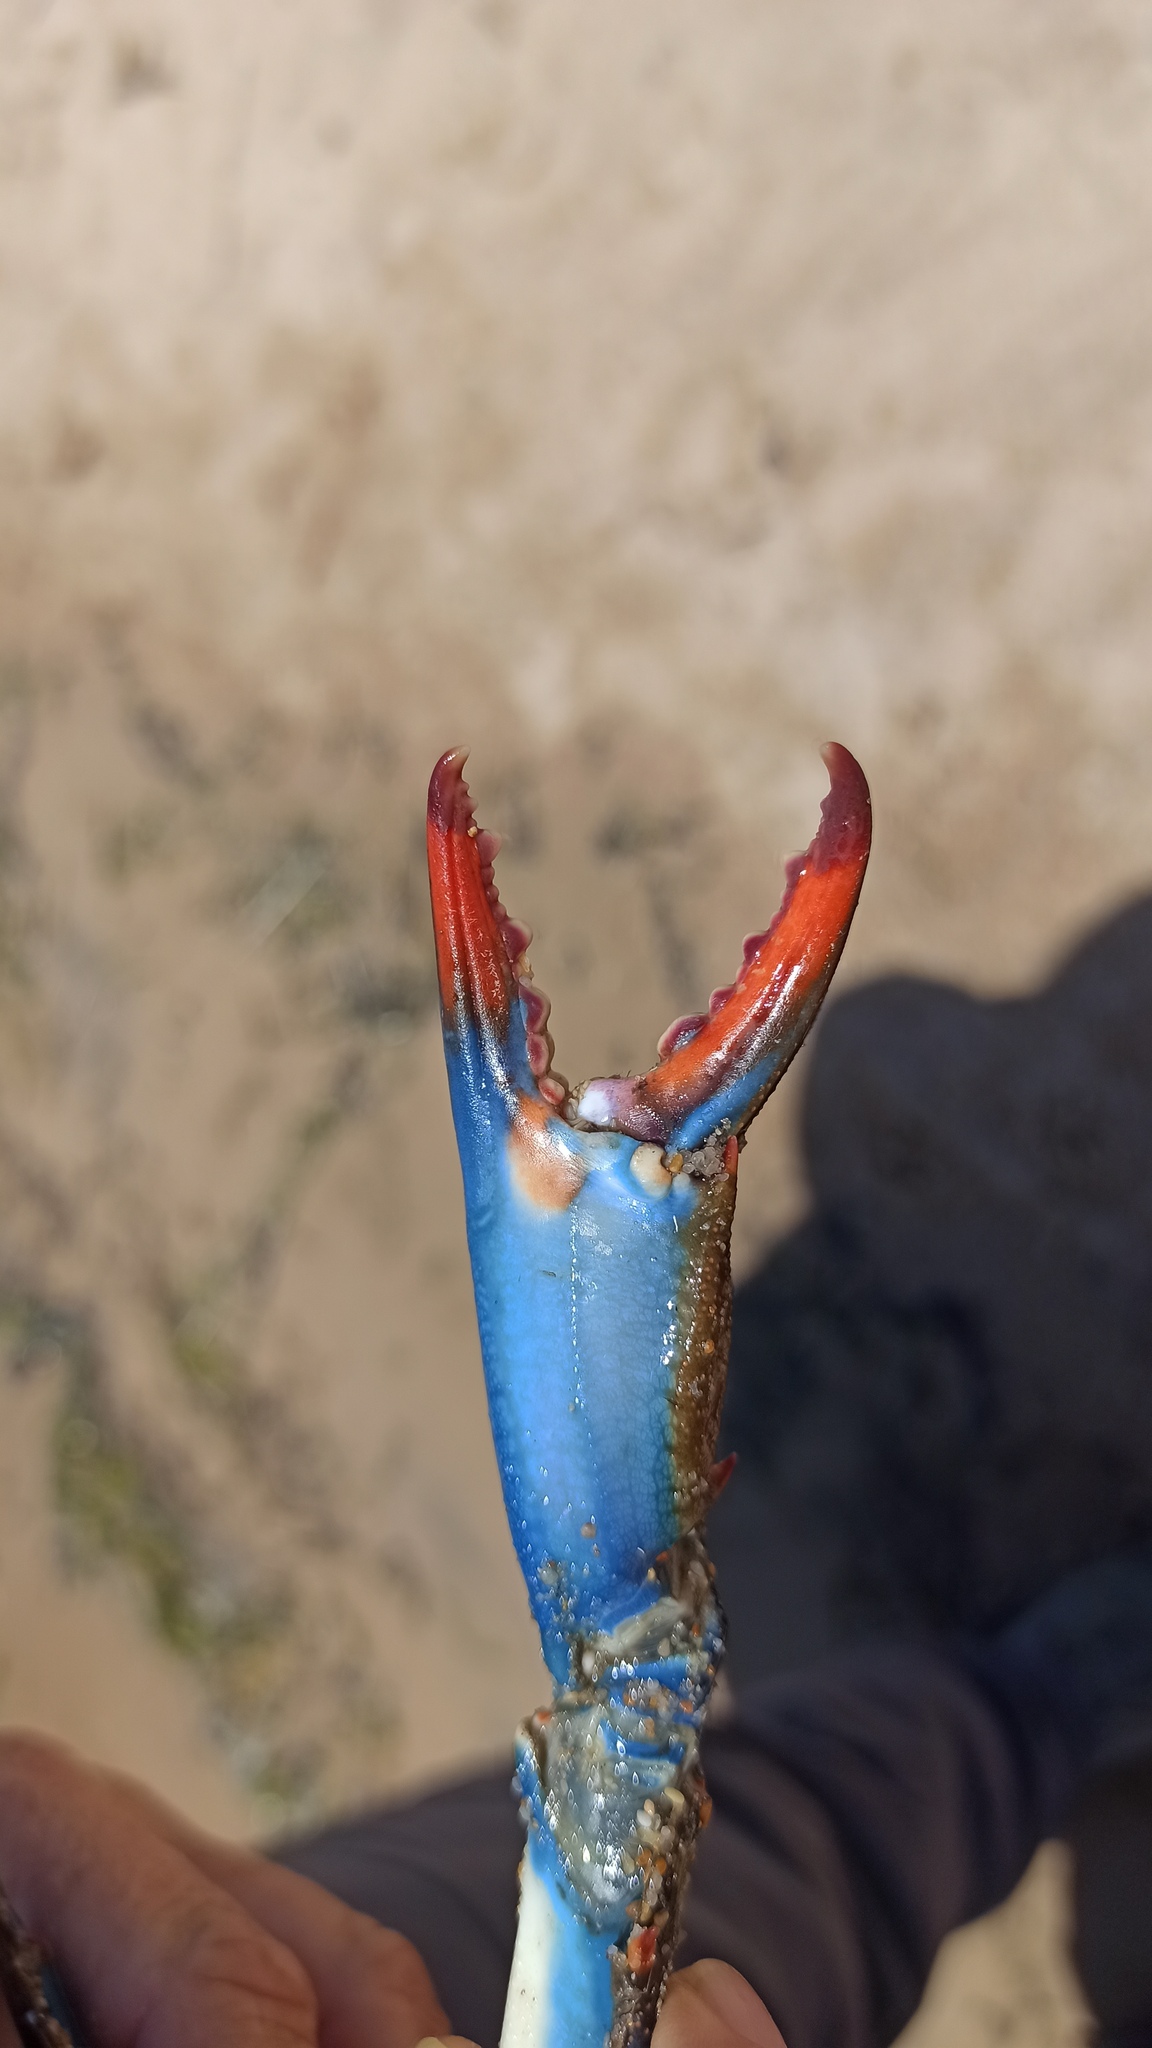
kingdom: Animalia
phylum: Arthropoda
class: Malacostraca
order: Decapoda
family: Portunidae
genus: Callinectes
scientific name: Callinectes sapidus
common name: Blue crab
